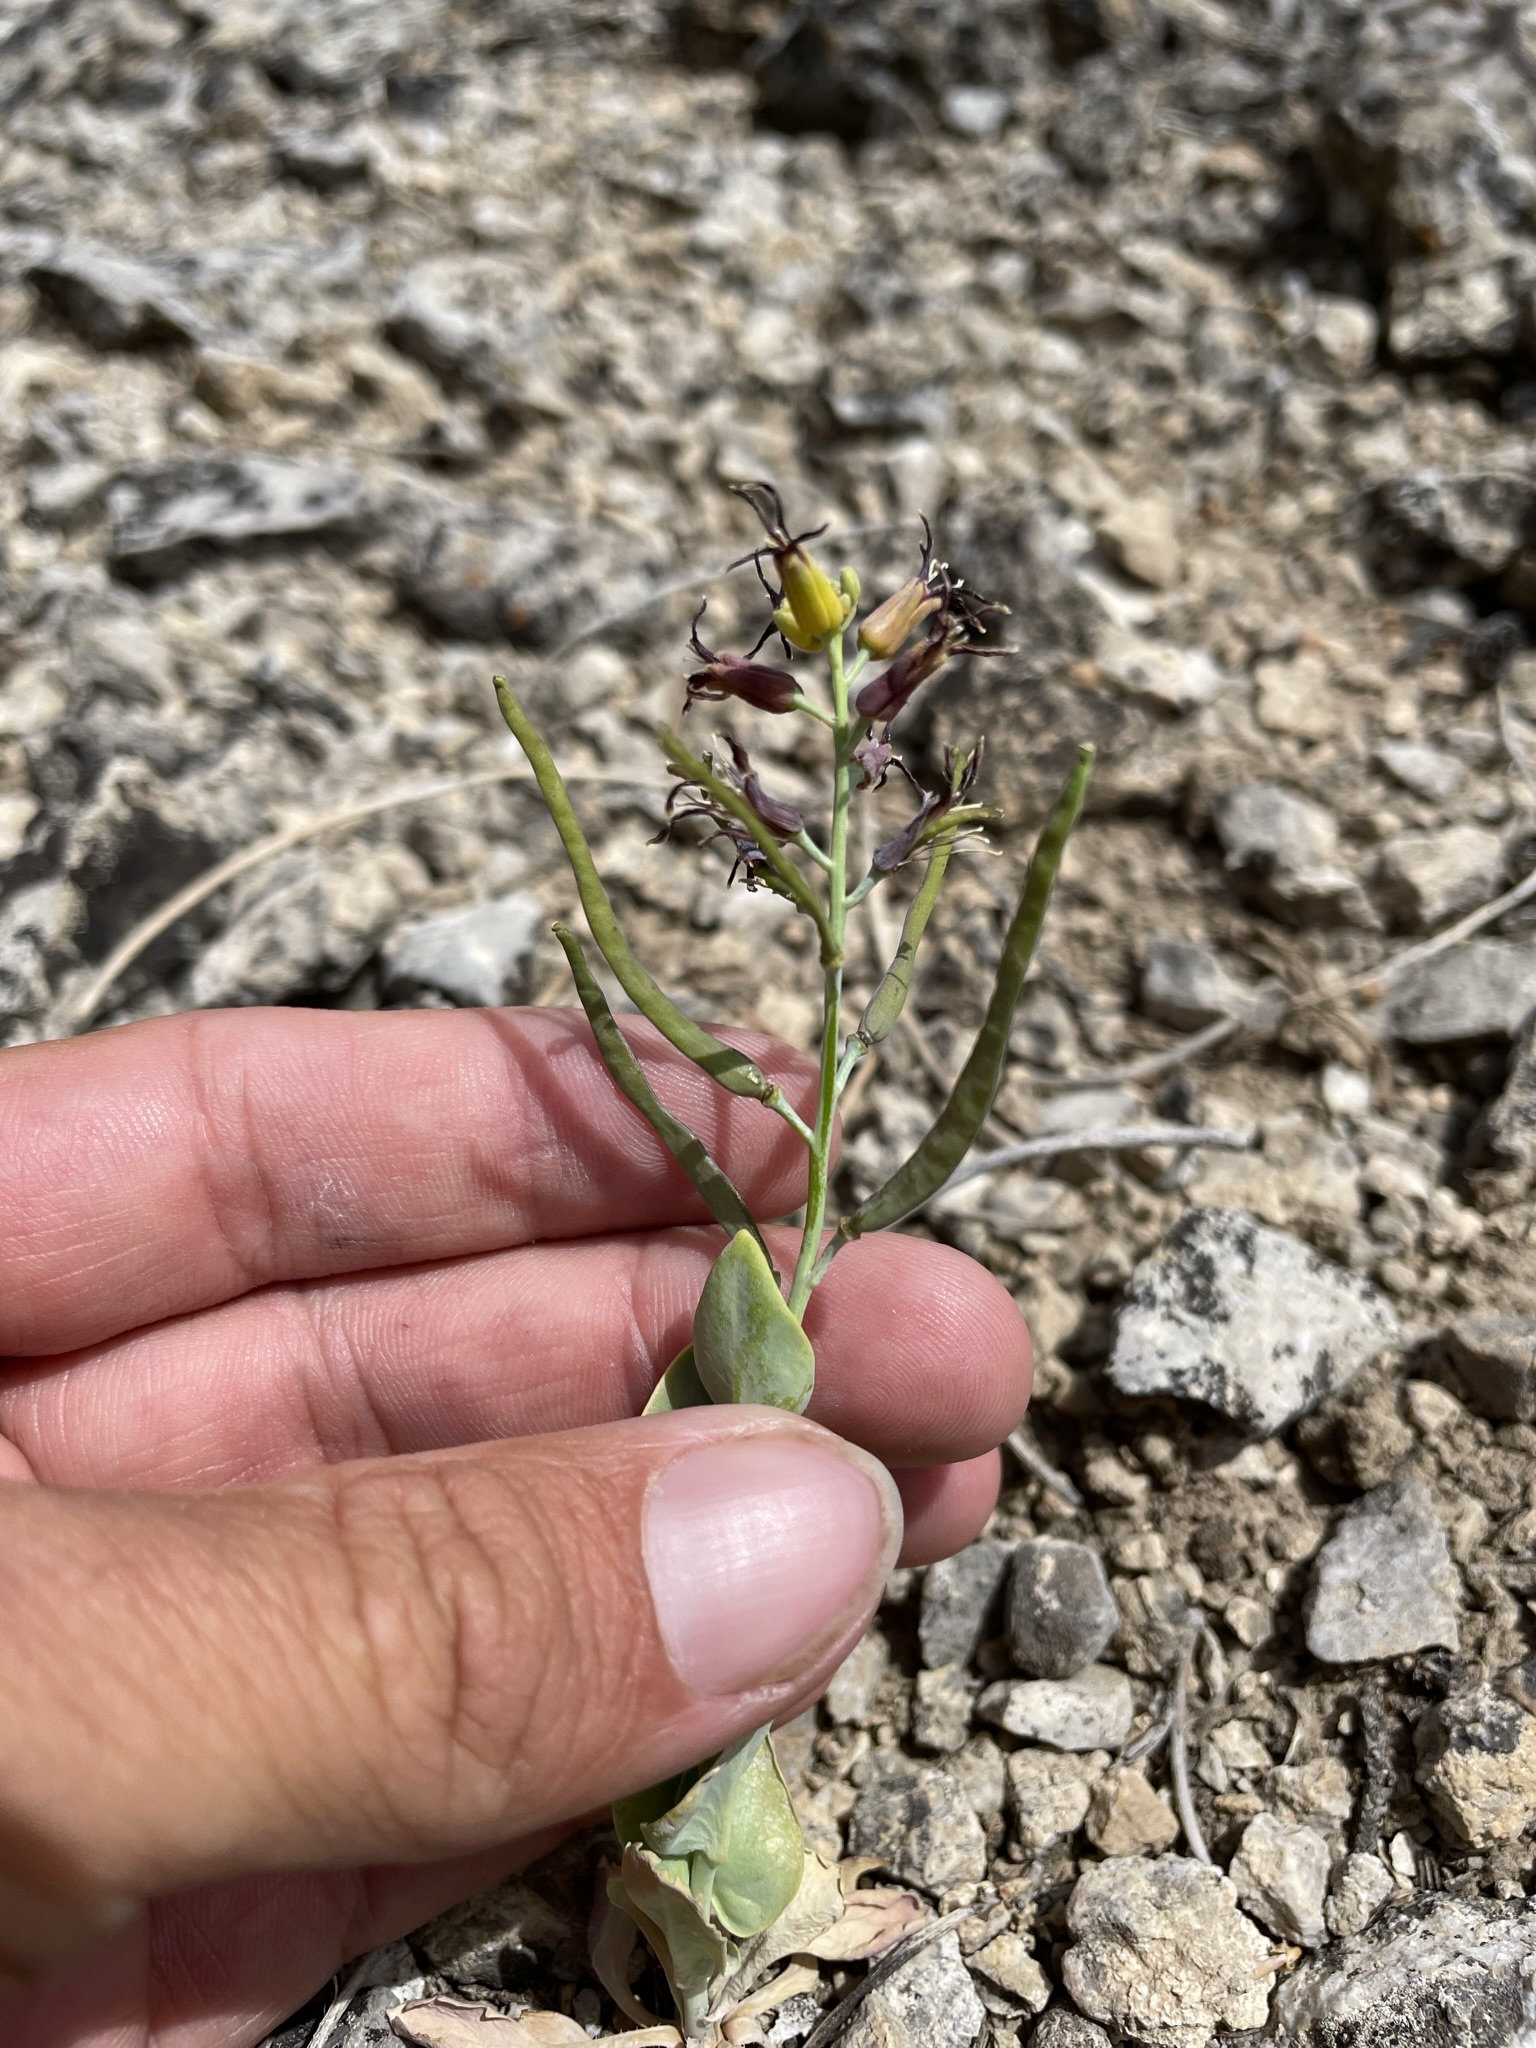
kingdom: Plantae
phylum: Tracheophyta
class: Magnoliopsida
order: Brassicales
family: Brassicaceae
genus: Streptanthus
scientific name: Streptanthus cordatus
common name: Heart-leaf jewel-flower
